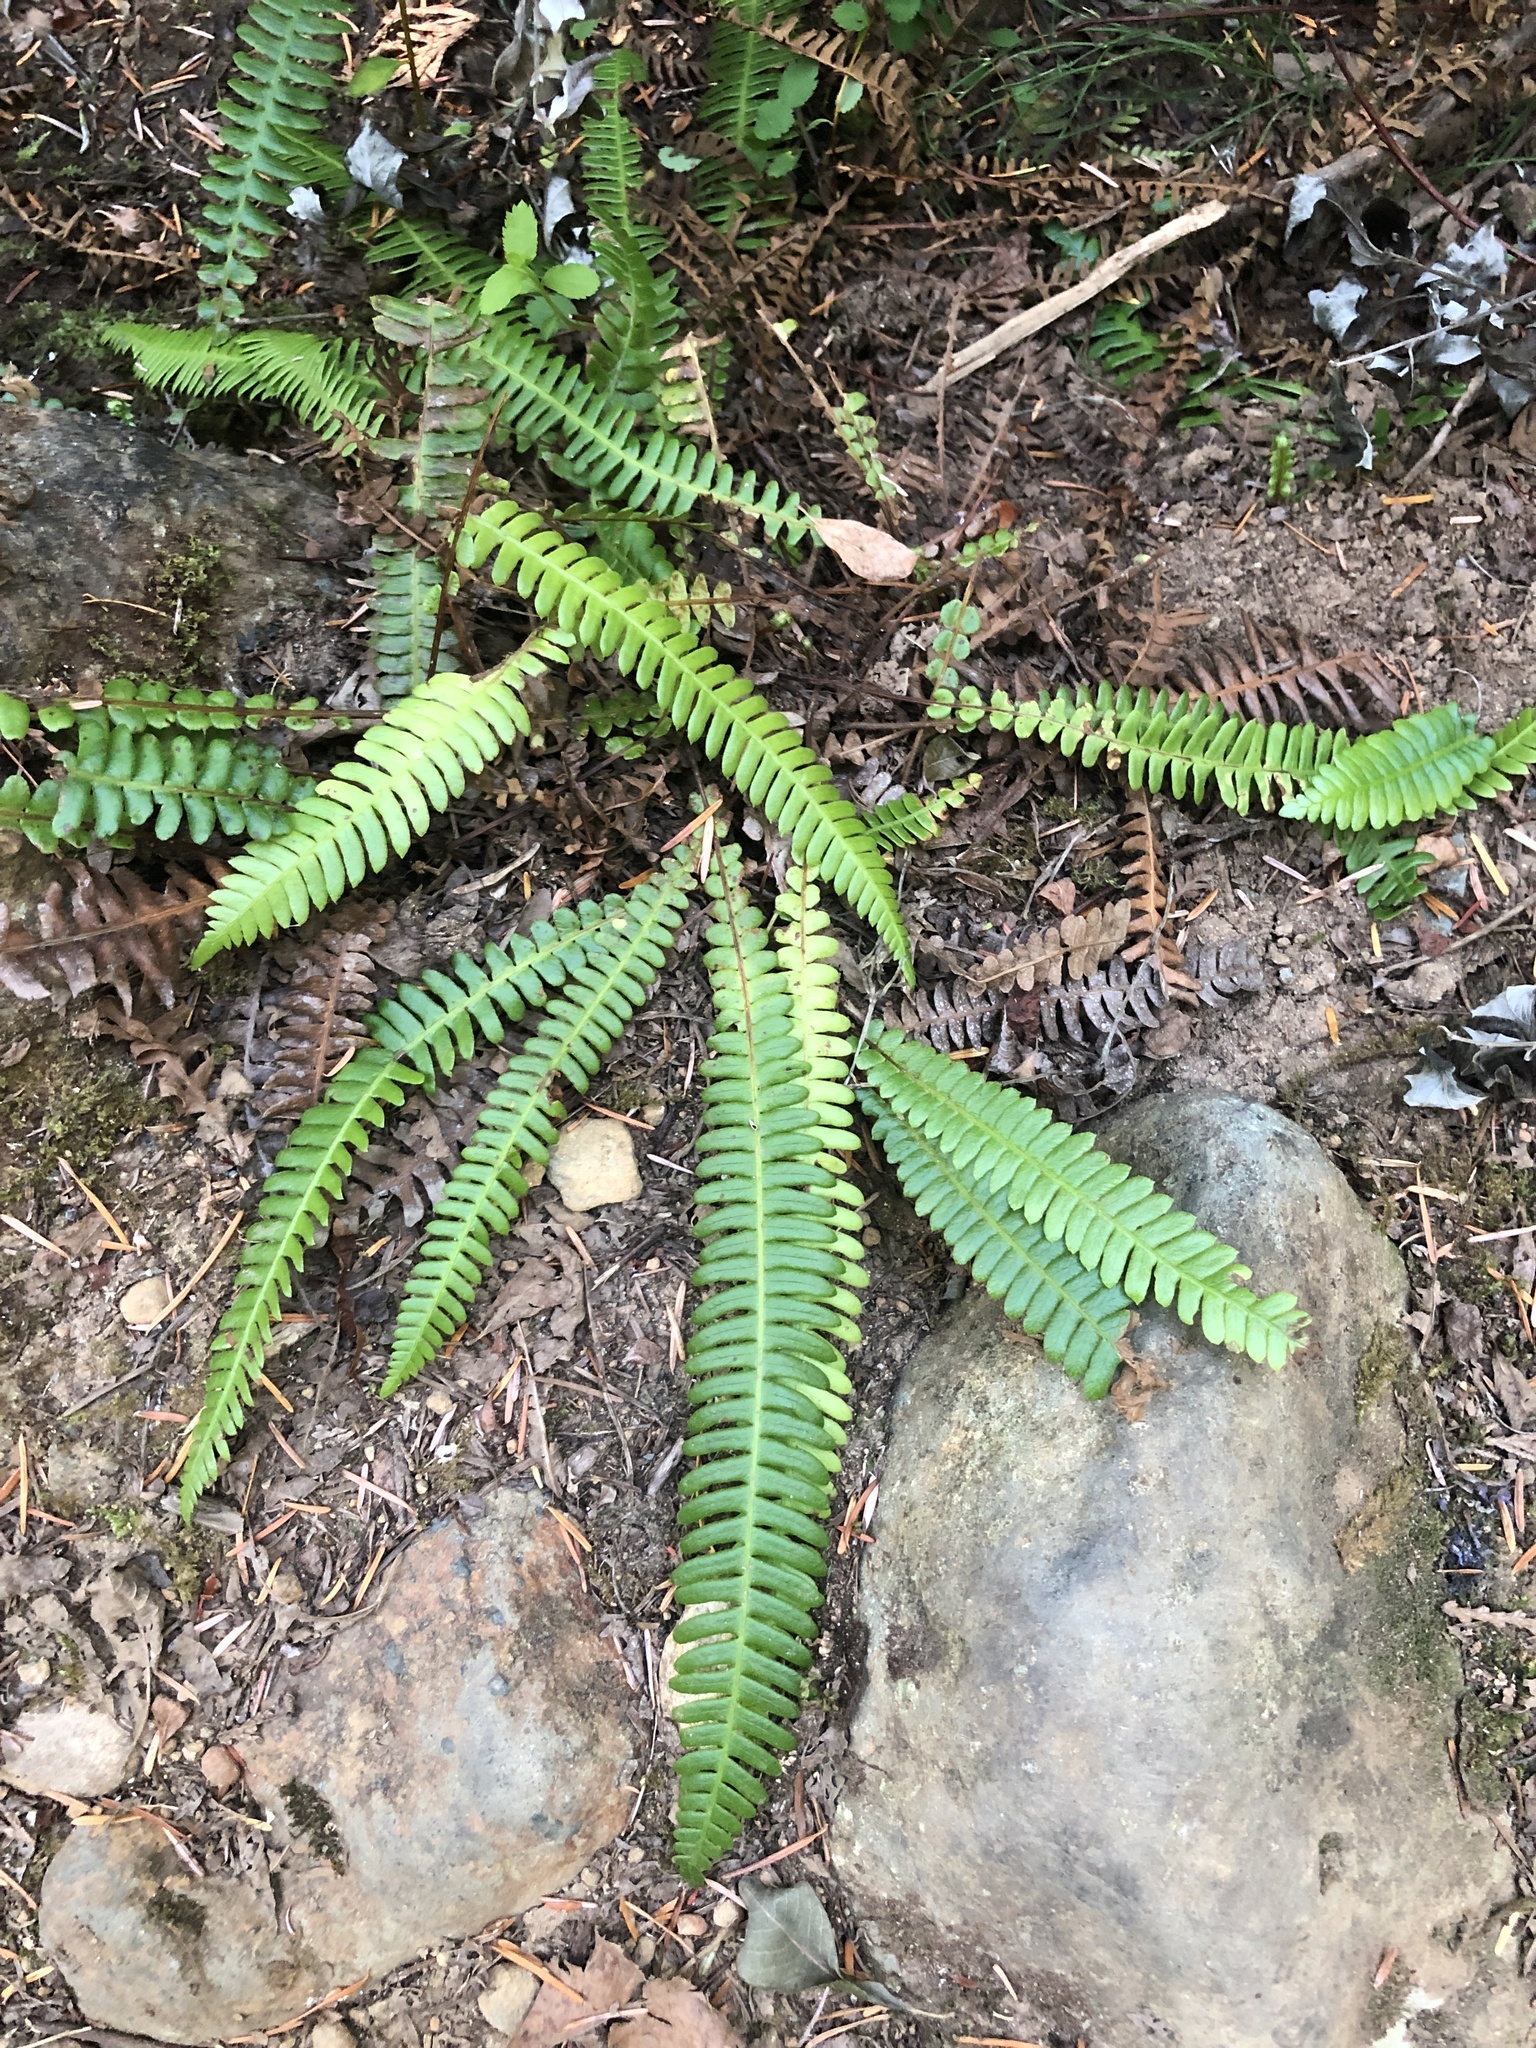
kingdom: Plantae
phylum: Tracheophyta
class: Polypodiopsida
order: Polypodiales
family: Blechnaceae
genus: Struthiopteris
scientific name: Struthiopteris spicant
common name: Deer fern
